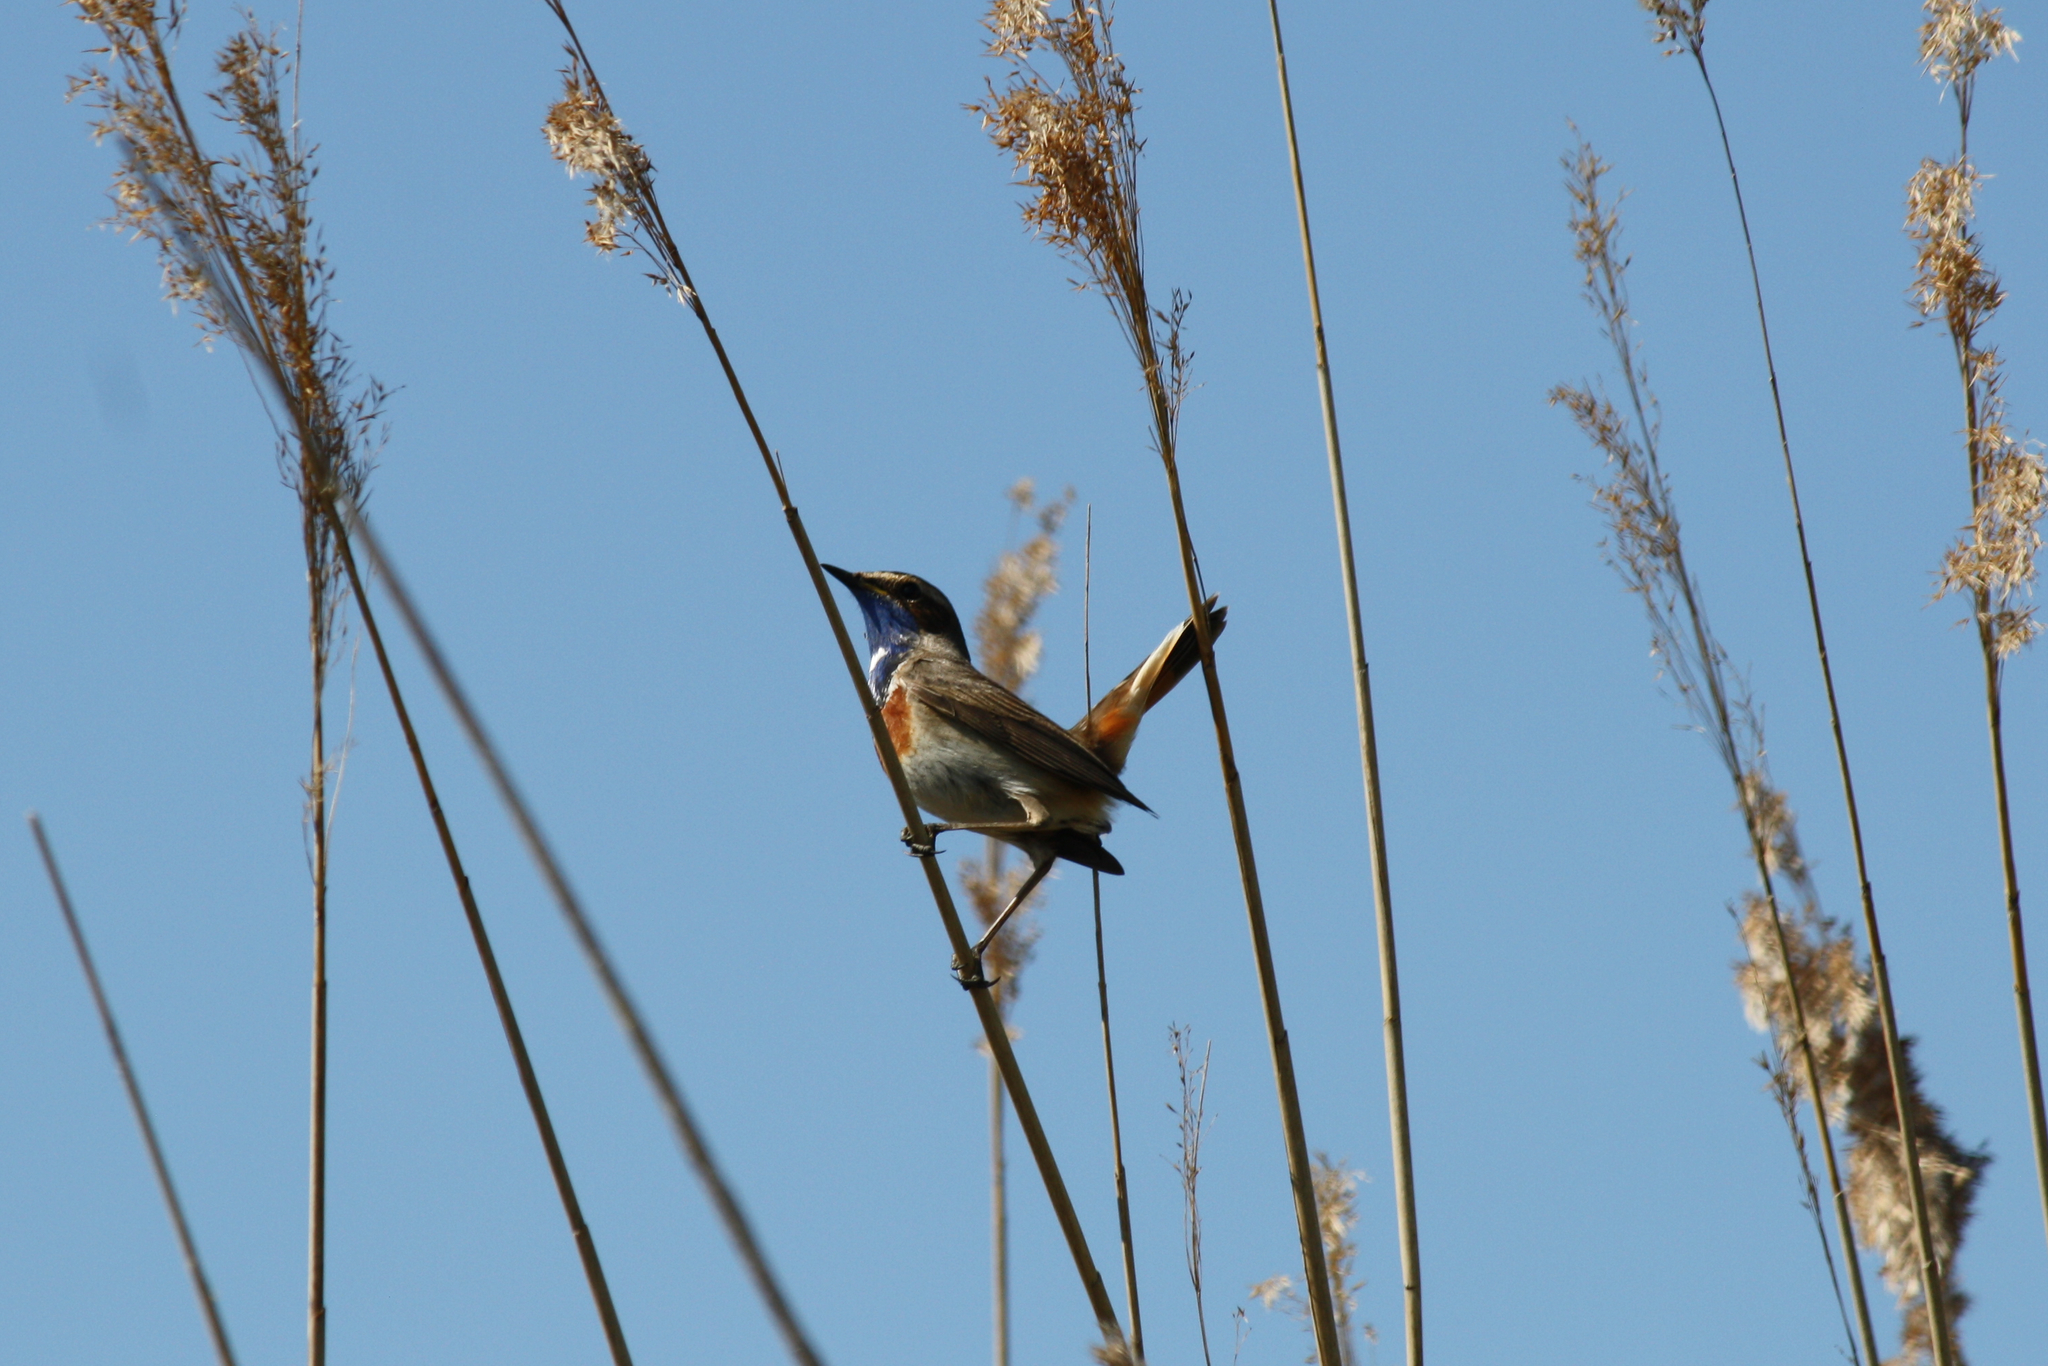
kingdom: Animalia
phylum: Chordata
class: Aves
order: Passeriformes
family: Muscicapidae
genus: Luscinia
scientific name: Luscinia svecica
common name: Bluethroat
